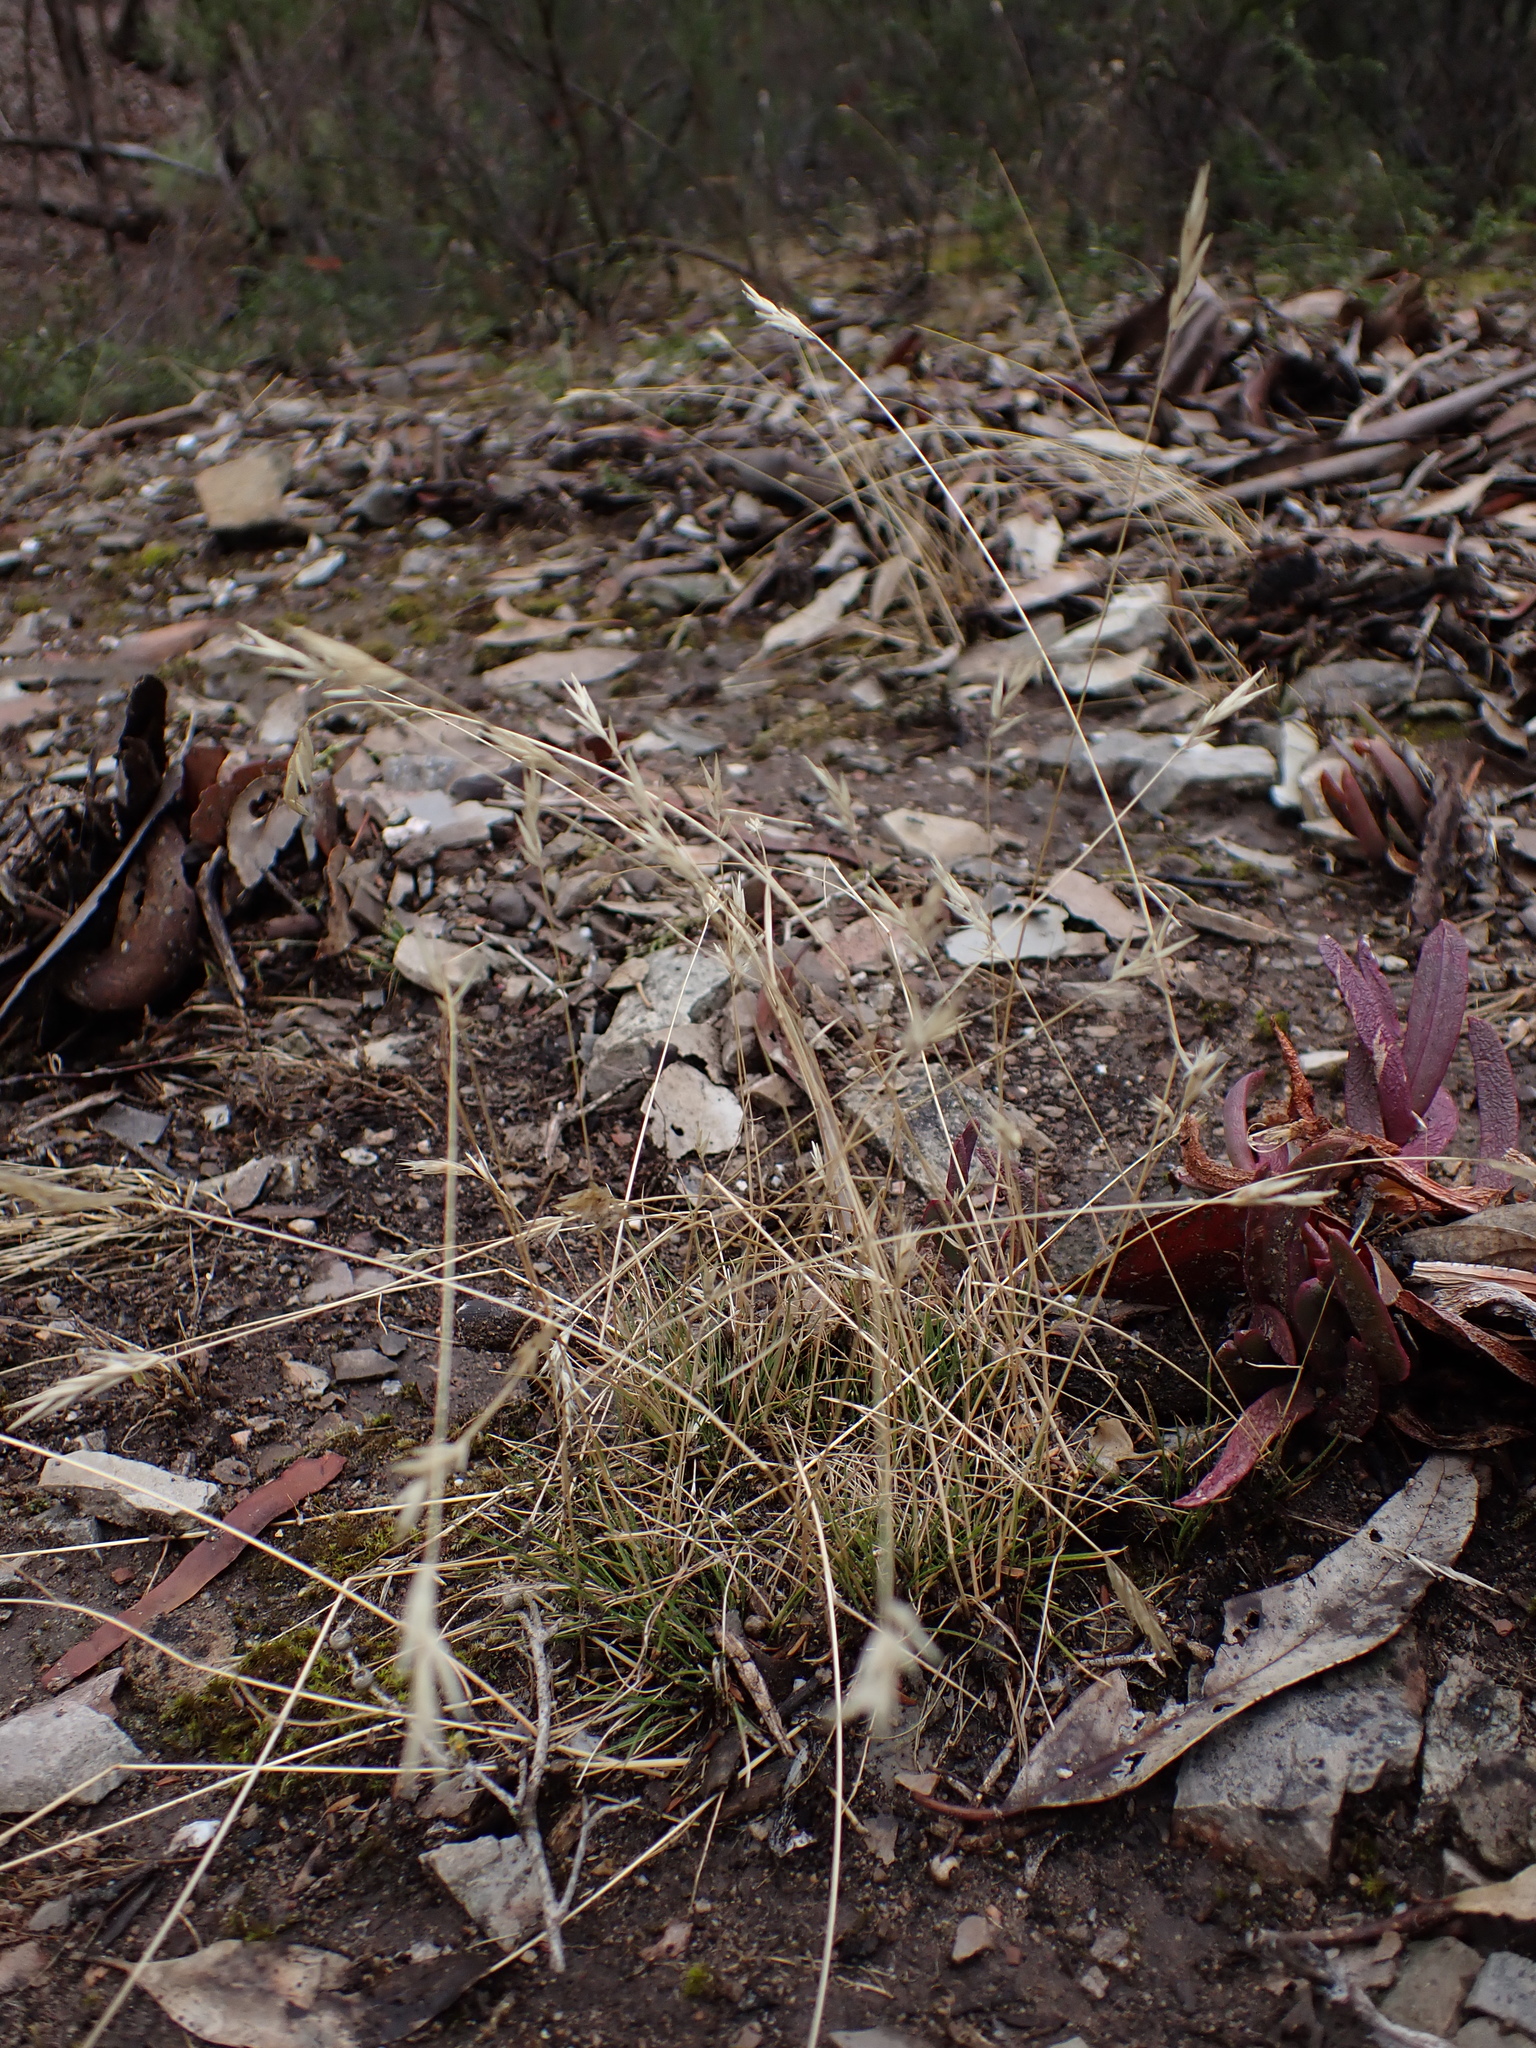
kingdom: Plantae
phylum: Tracheophyta
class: Liliopsida
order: Poales
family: Poaceae
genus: Rytidosperma
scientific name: Rytidosperma geniculatum
